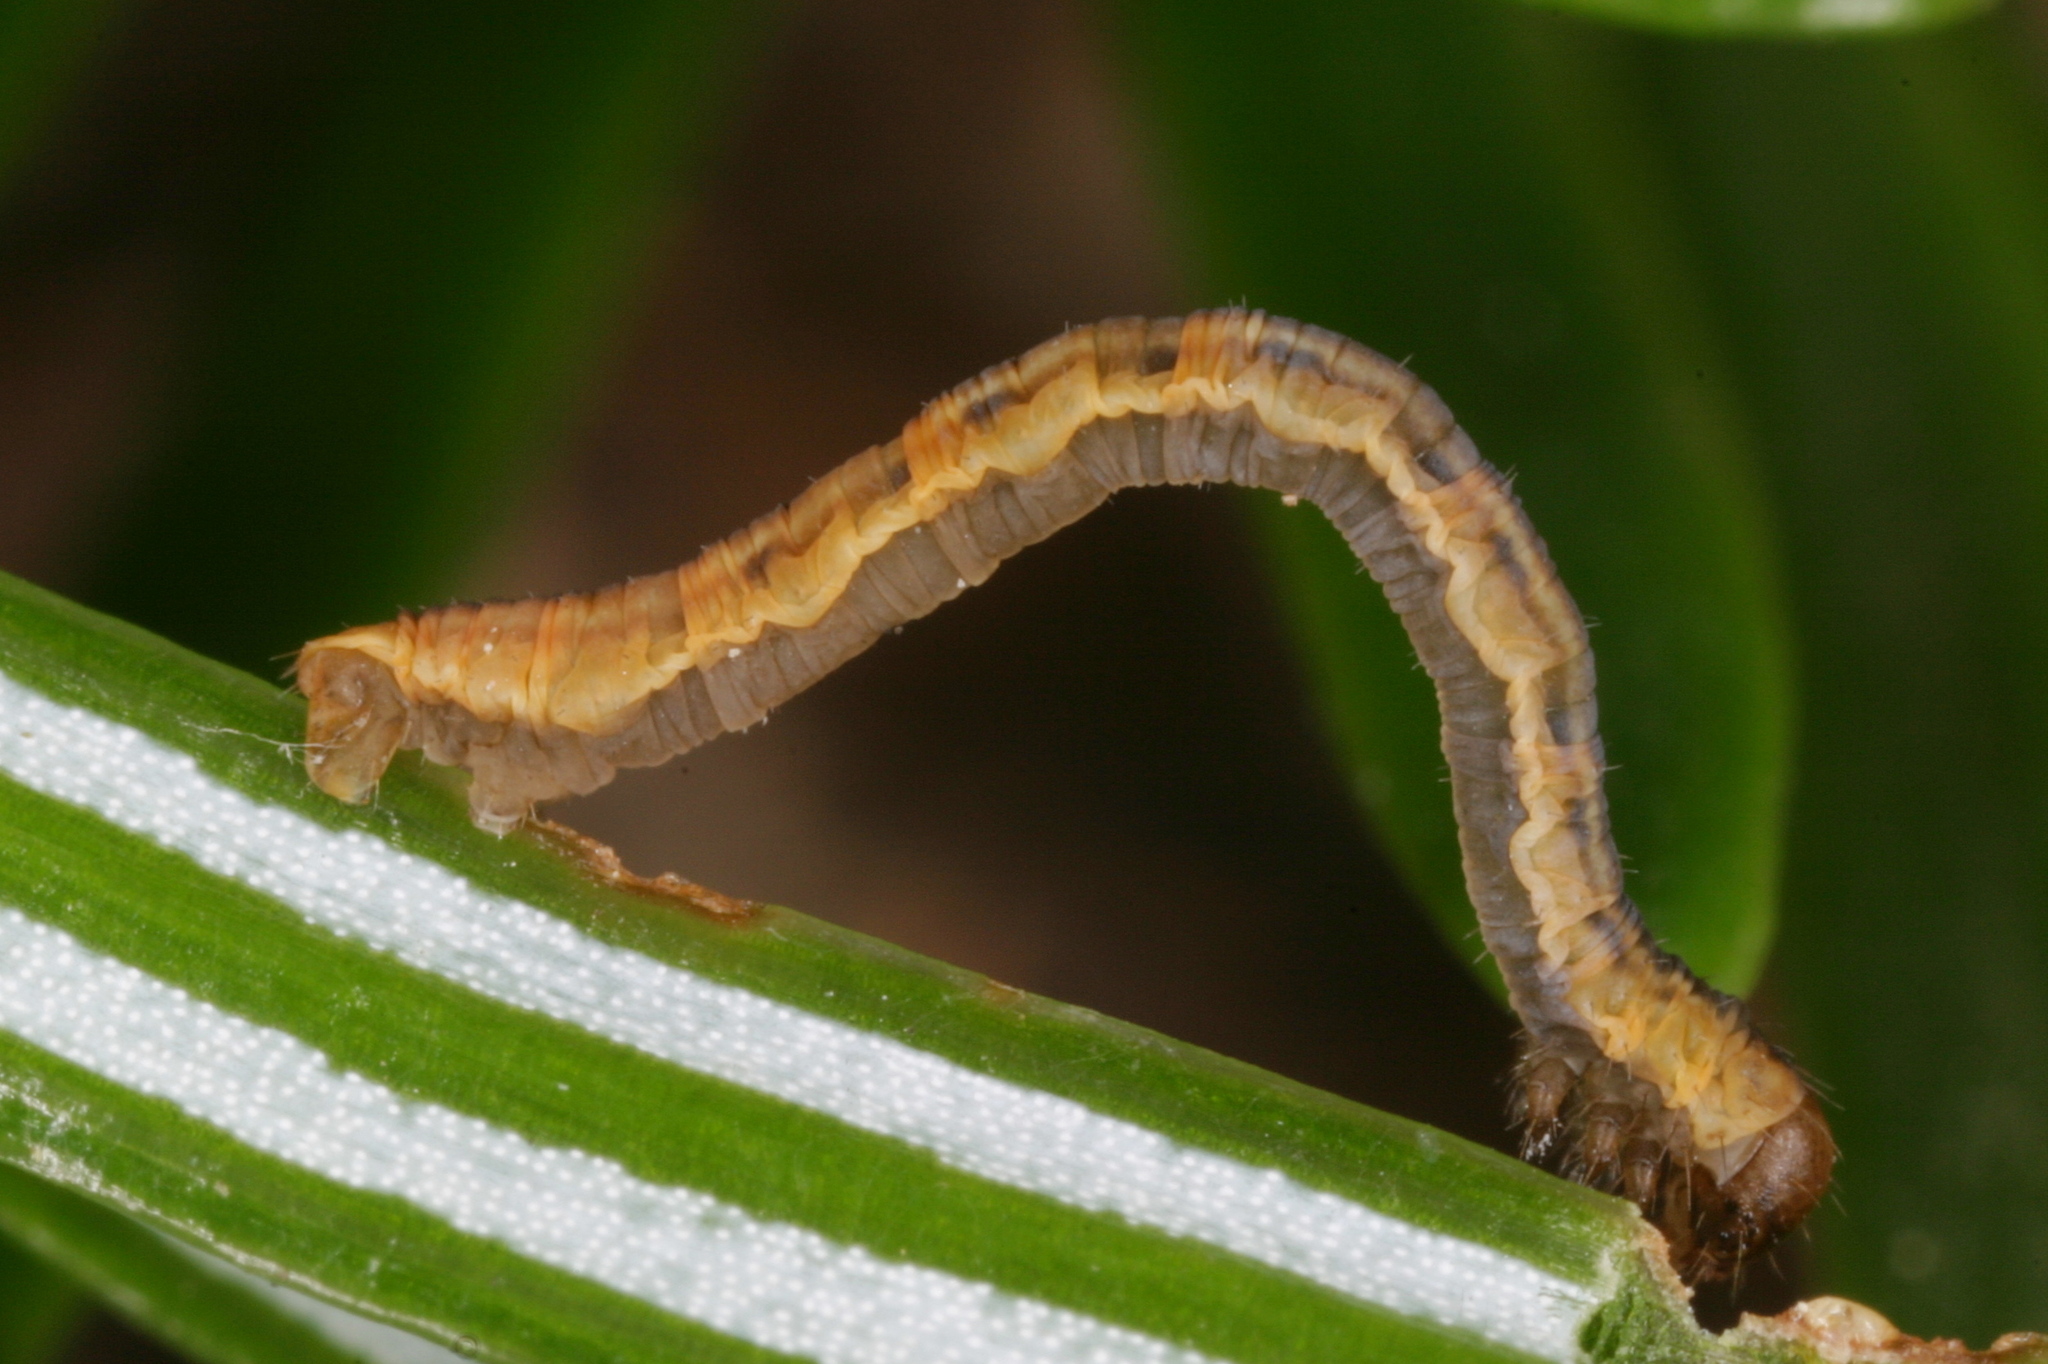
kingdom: Animalia
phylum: Arthropoda
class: Insecta
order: Lepidoptera
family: Geometridae
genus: Eupithecia
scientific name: Eupithecia tantillaria
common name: Dwarf pug
